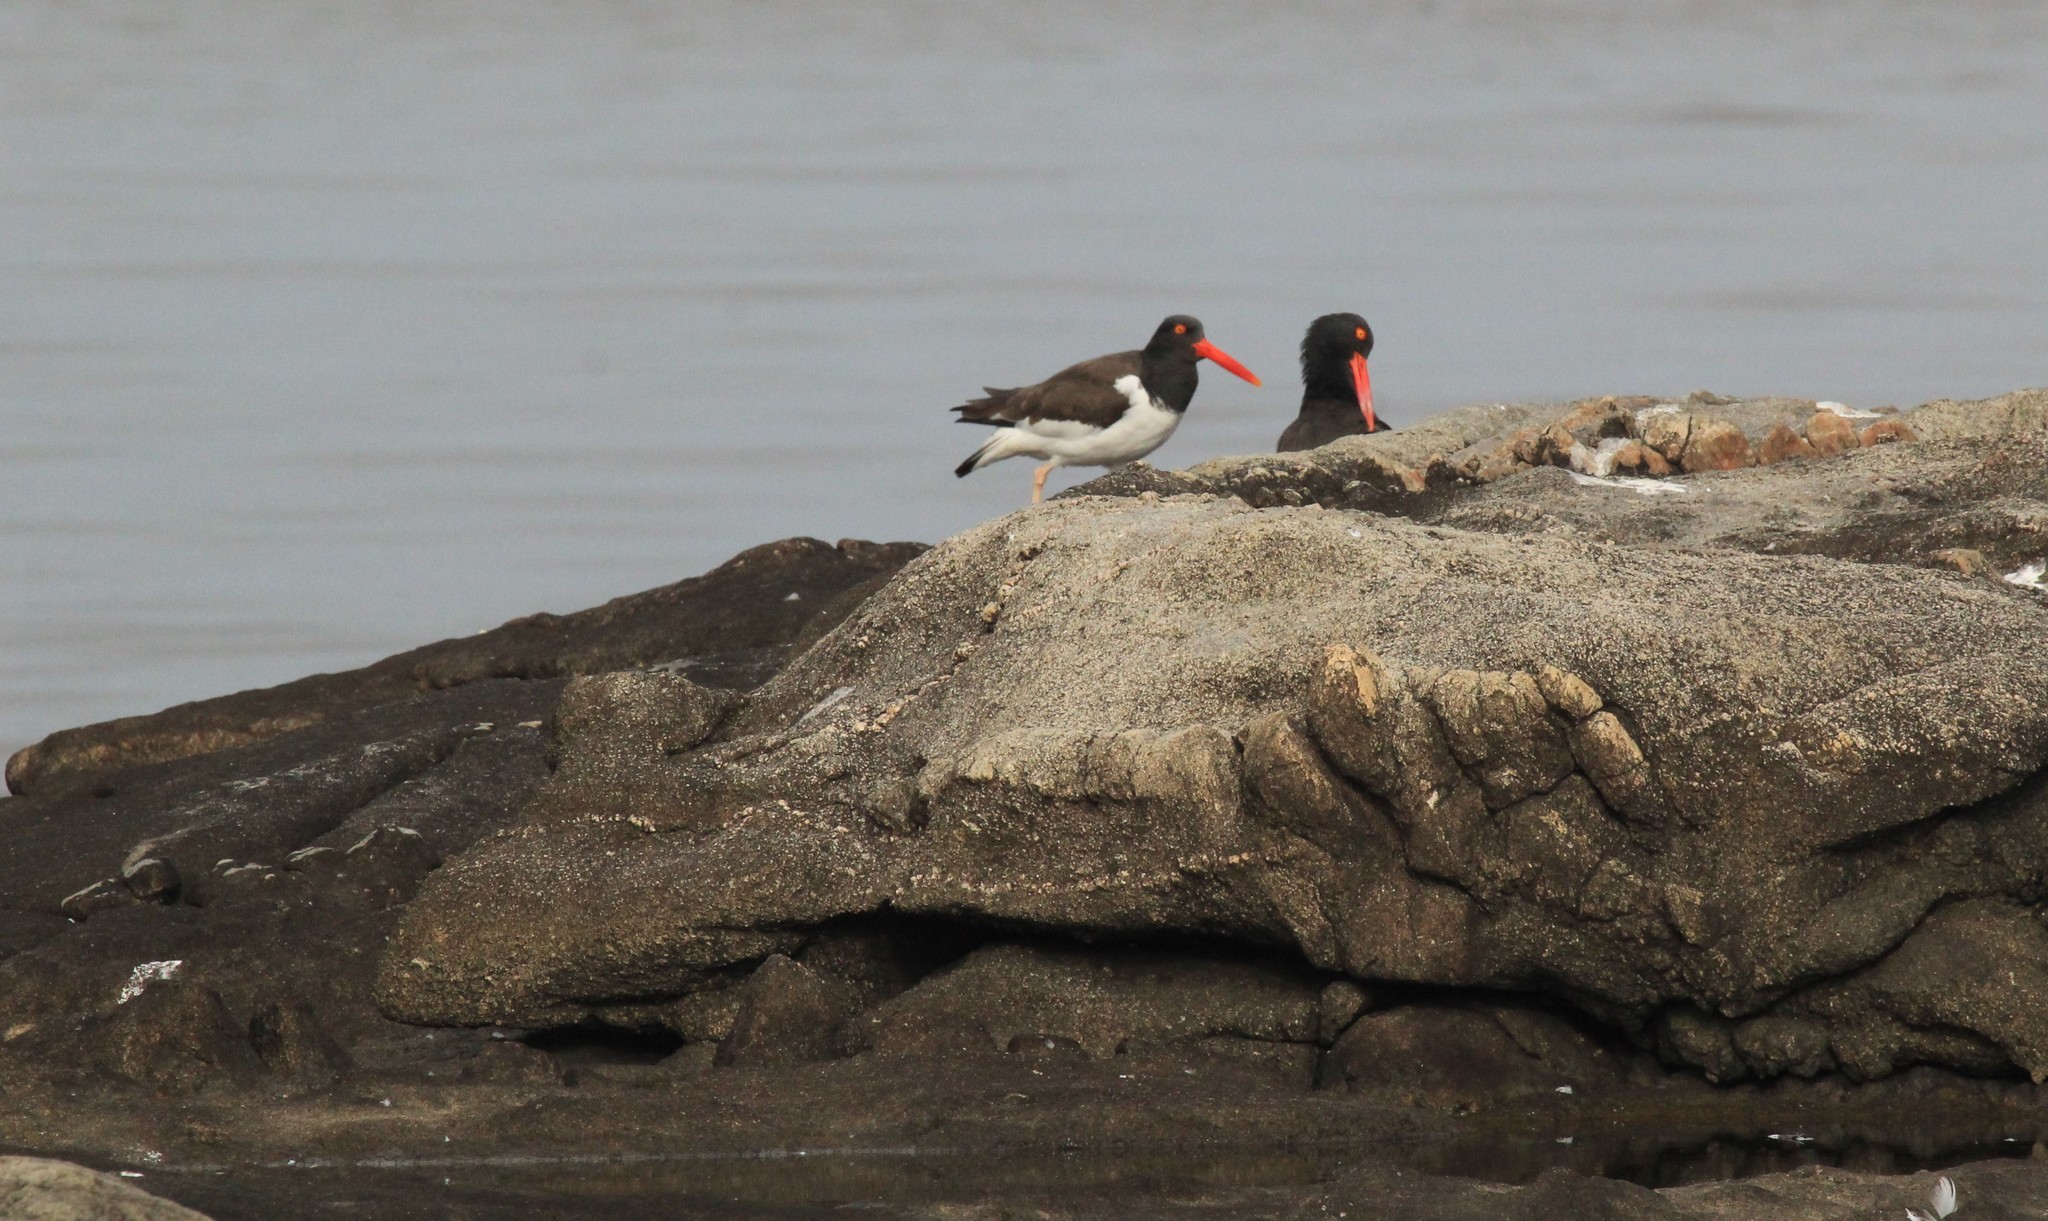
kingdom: Animalia
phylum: Chordata
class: Aves
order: Charadriiformes
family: Haematopodidae
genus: Haematopus
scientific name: Haematopus palliatus
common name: American oystercatcher
